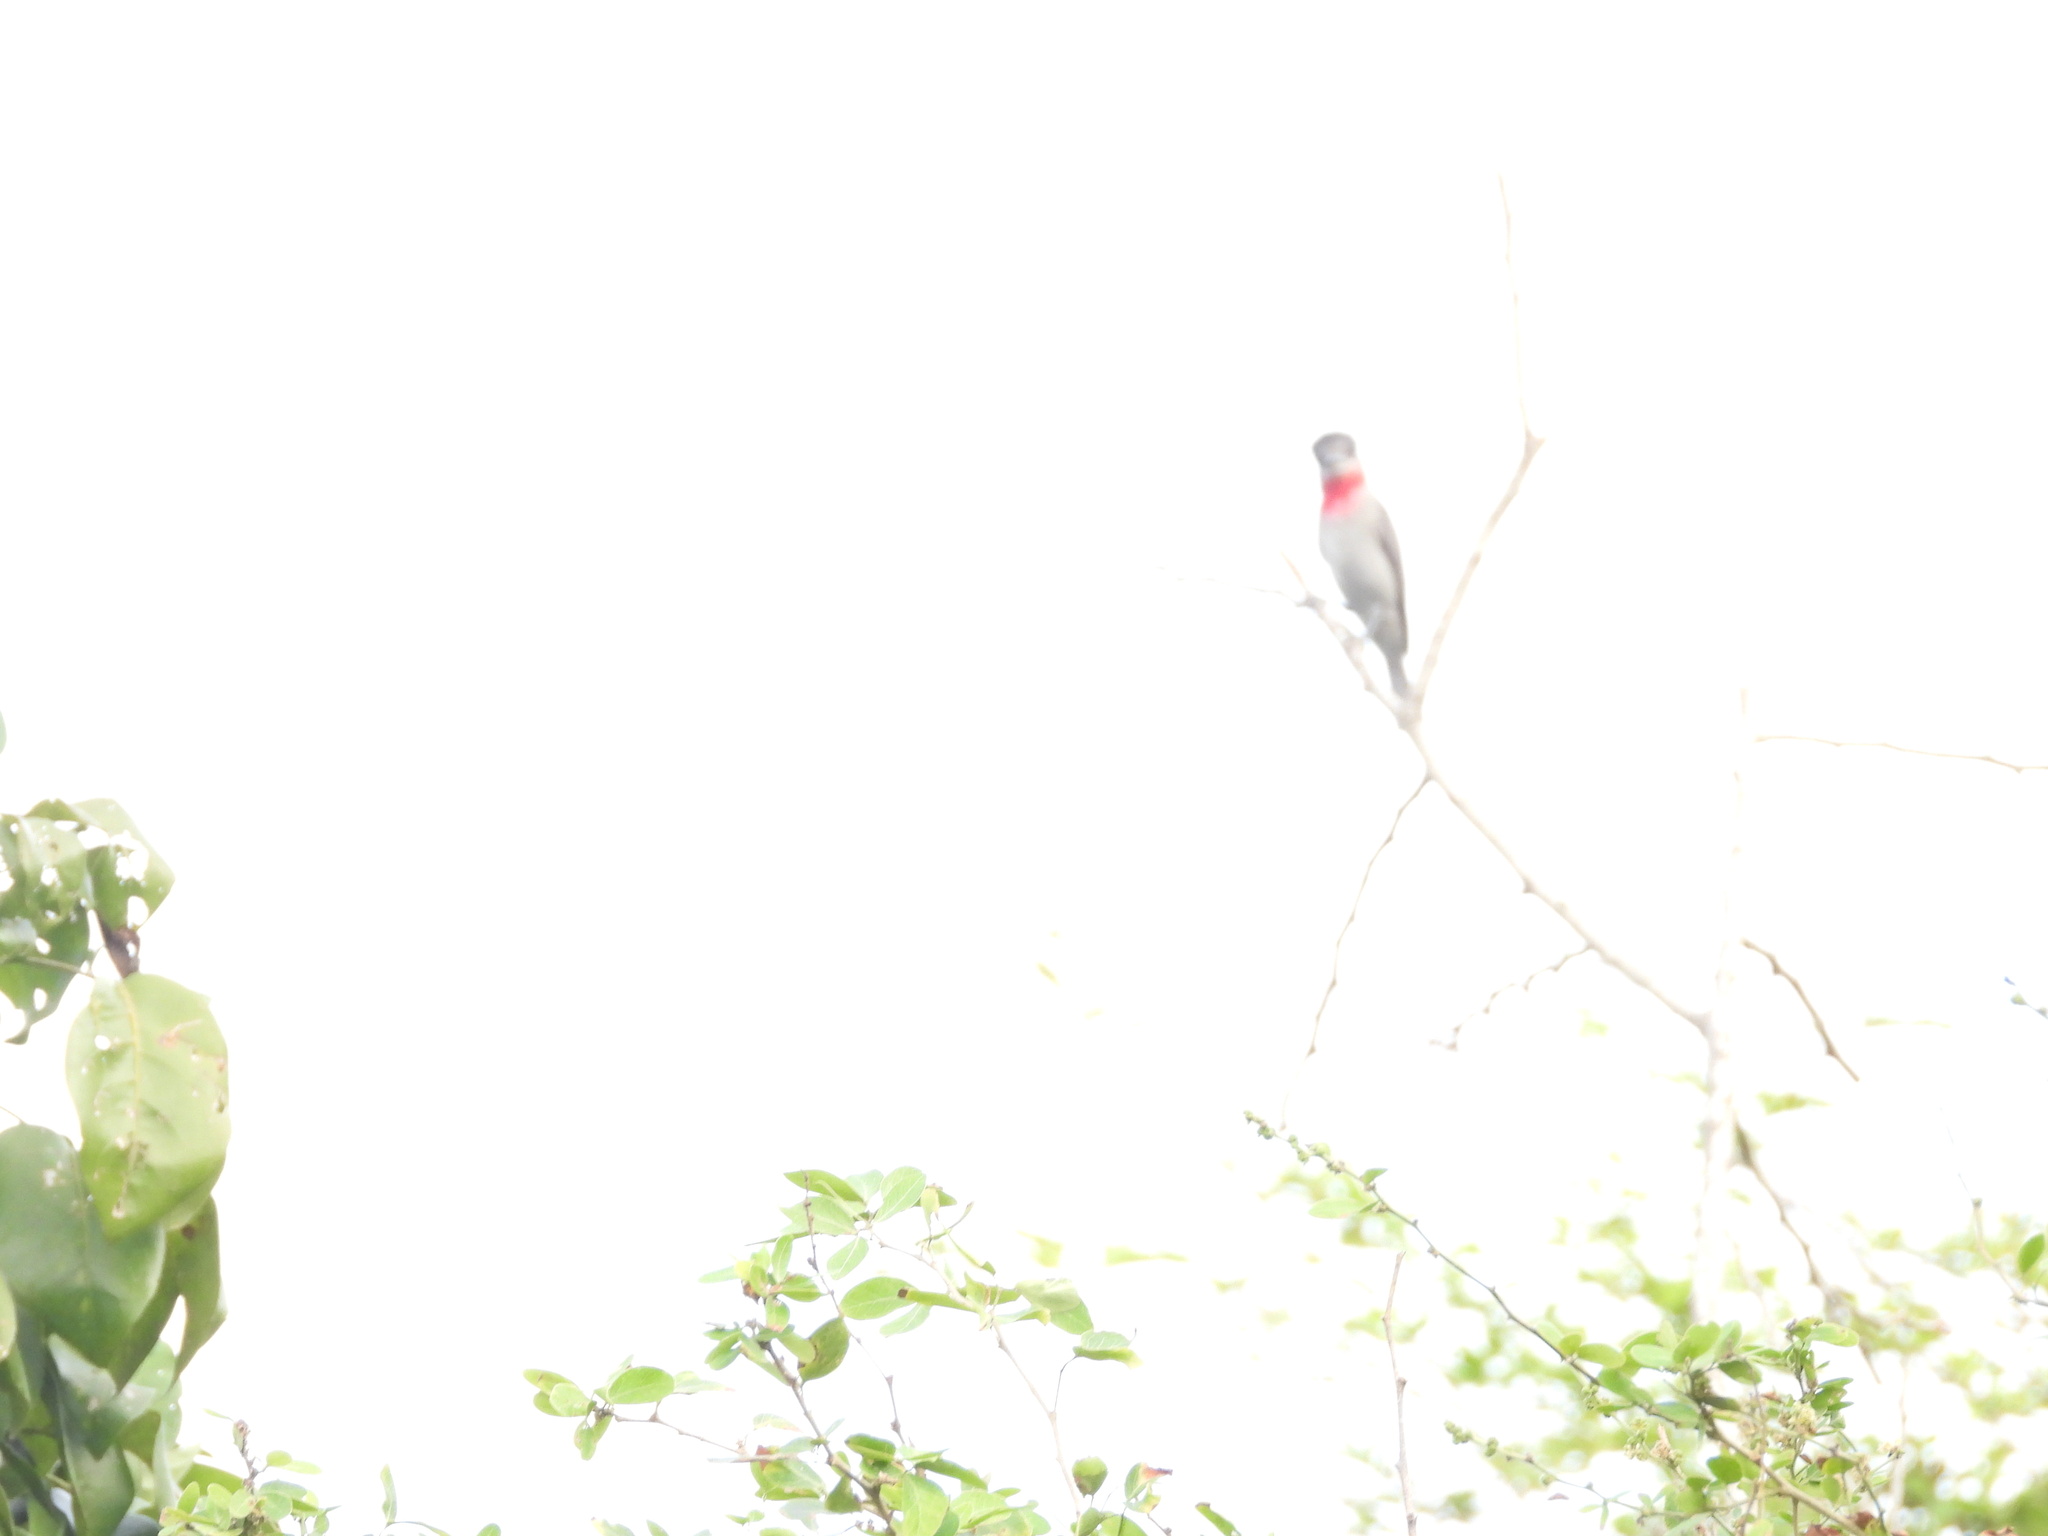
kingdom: Animalia
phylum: Chordata
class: Aves
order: Passeriformes
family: Cotingidae
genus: Pachyramphus
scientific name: Pachyramphus aglaiae
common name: Rose-throated becard
